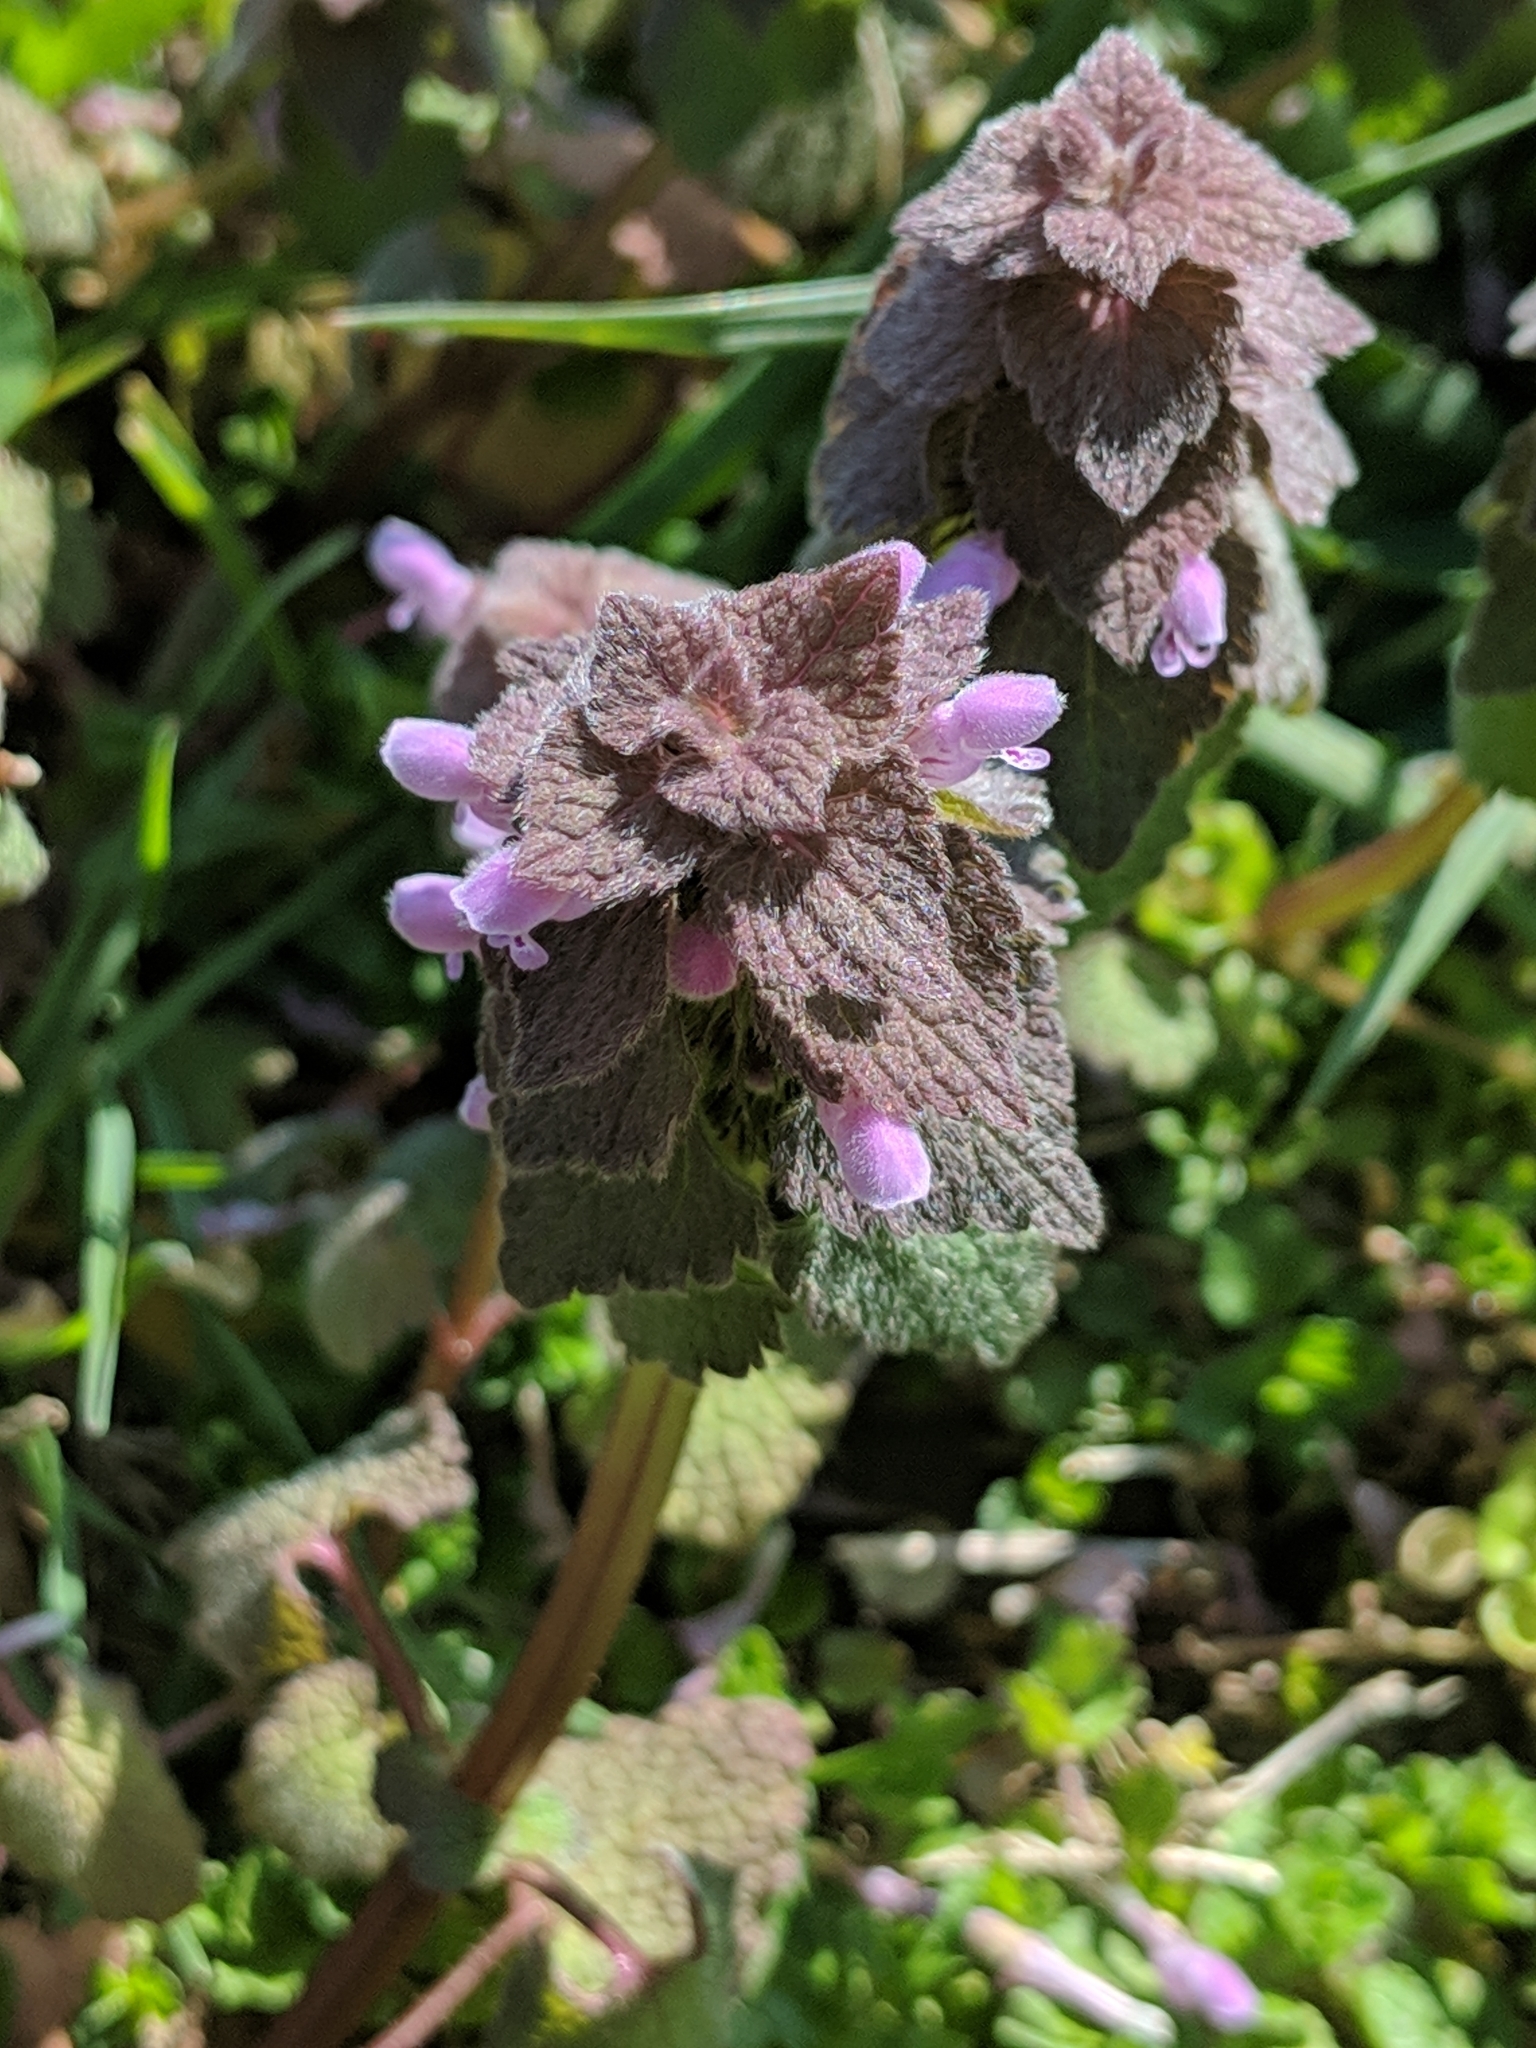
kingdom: Plantae
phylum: Tracheophyta
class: Magnoliopsida
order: Lamiales
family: Lamiaceae
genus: Lamium
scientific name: Lamium purpureum
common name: Red dead-nettle
